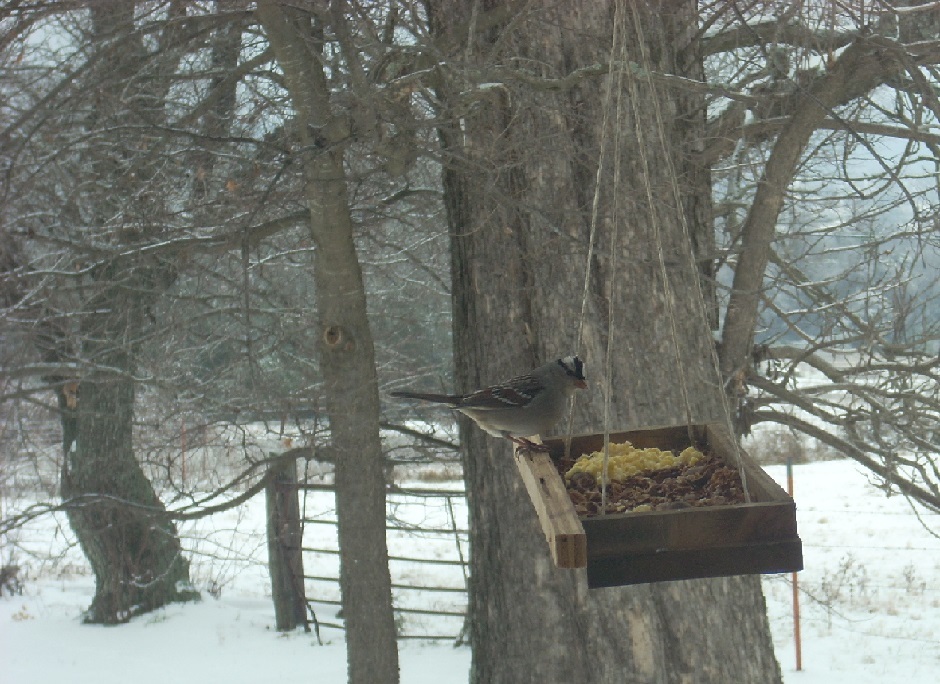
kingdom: Animalia
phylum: Chordata
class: Aves
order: Passeriformes
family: Passerellidae
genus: Zonotrichia
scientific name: Zonotrichia leucophrys
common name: White-crowned sparrow
